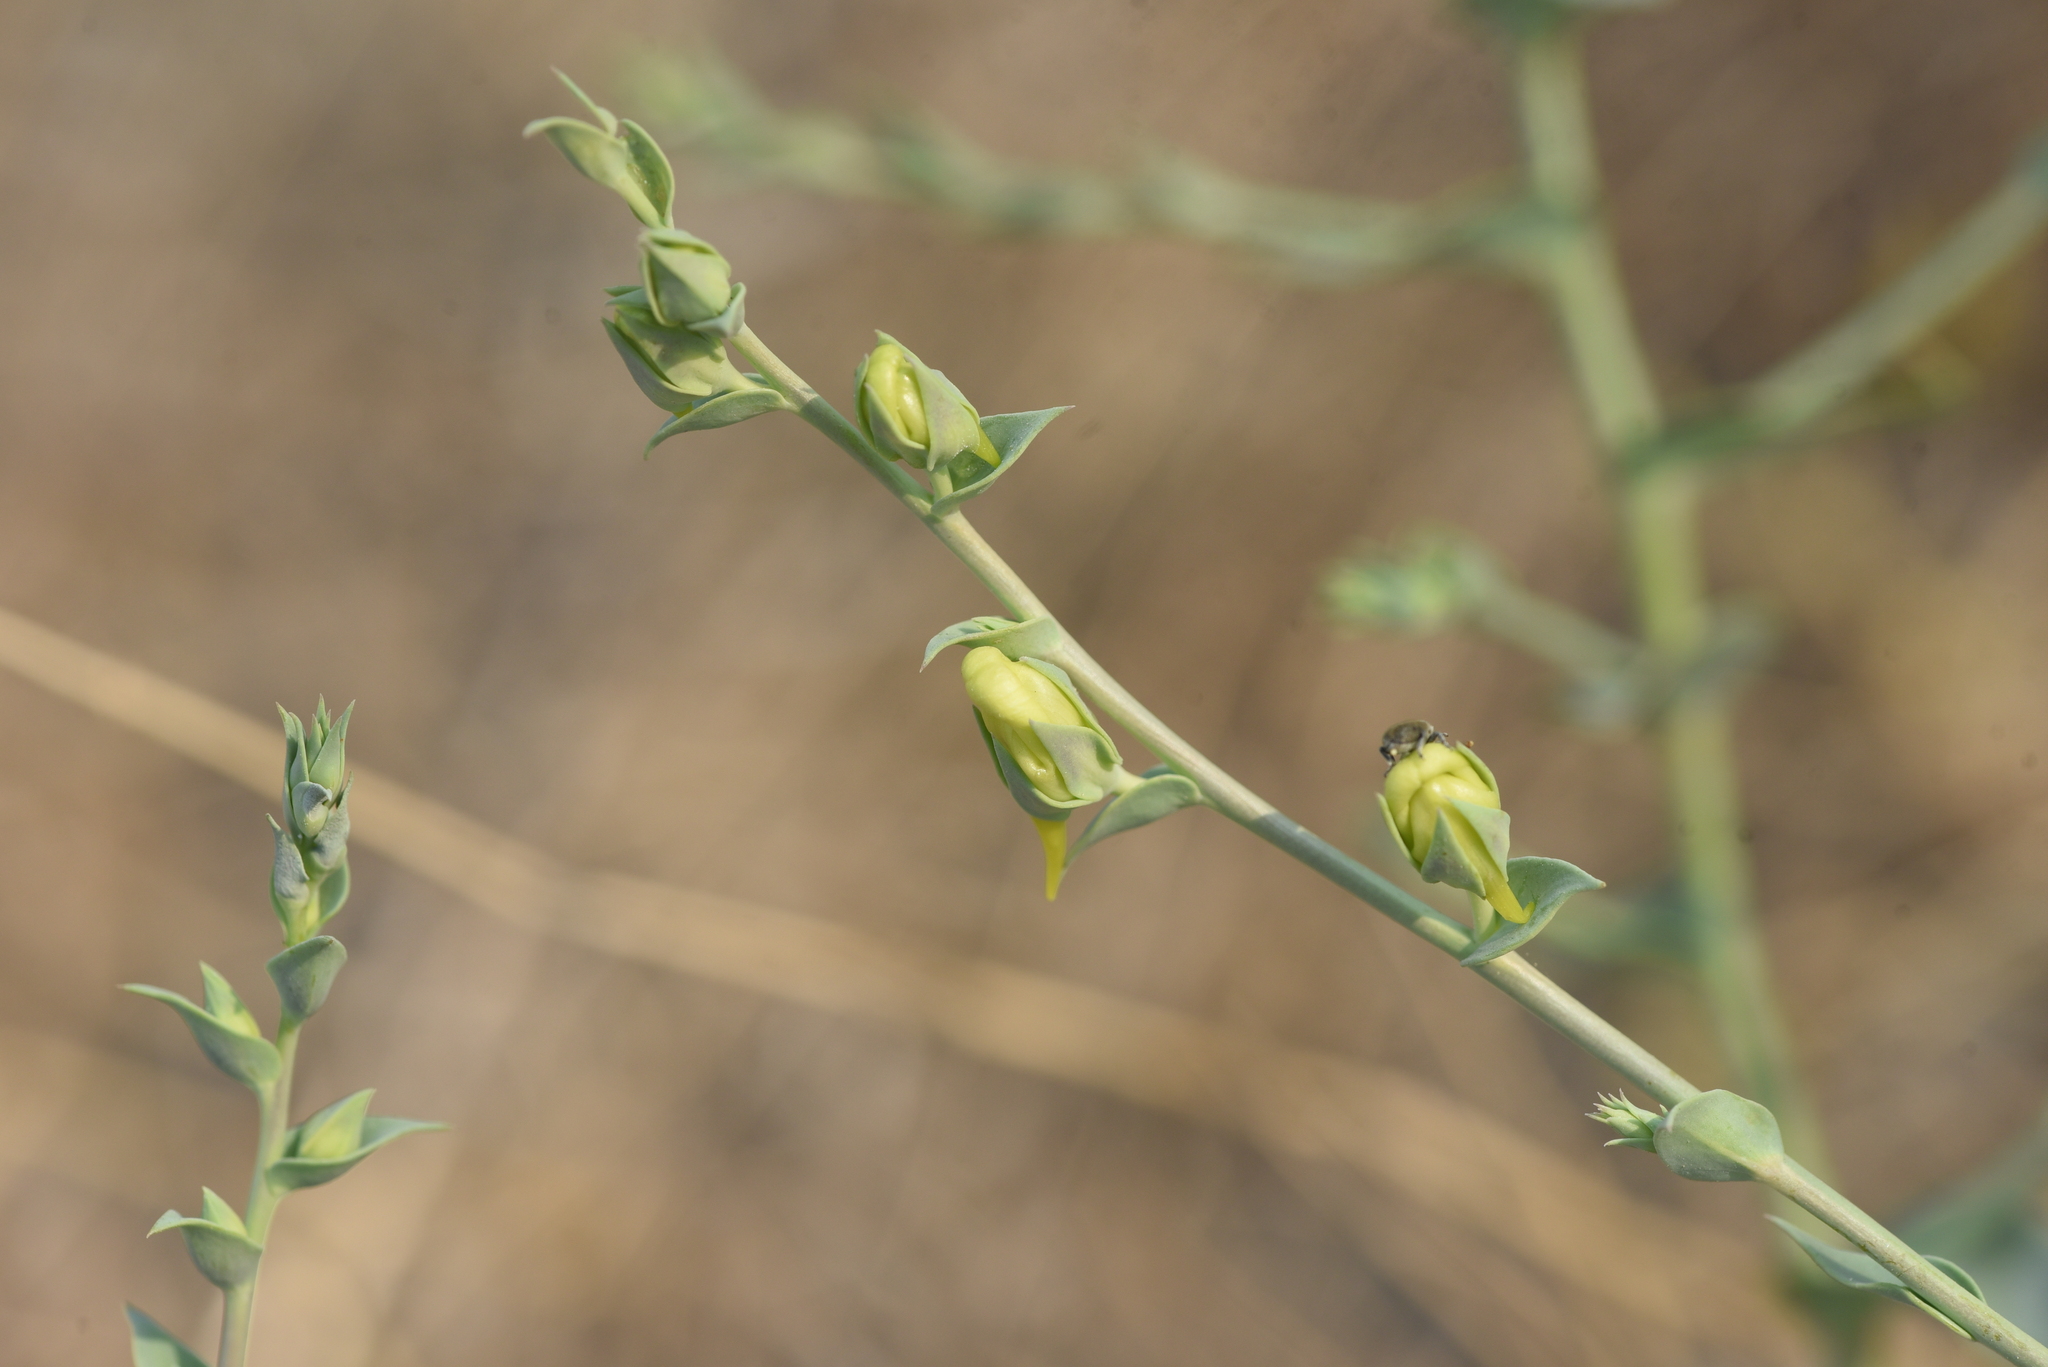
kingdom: Plantae
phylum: Tracheophyta
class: Magnoliopsida
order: Lamiales
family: Plantaginaceae
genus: Linaria
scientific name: Linaria dalmatica
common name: Dalmatian toadflax
